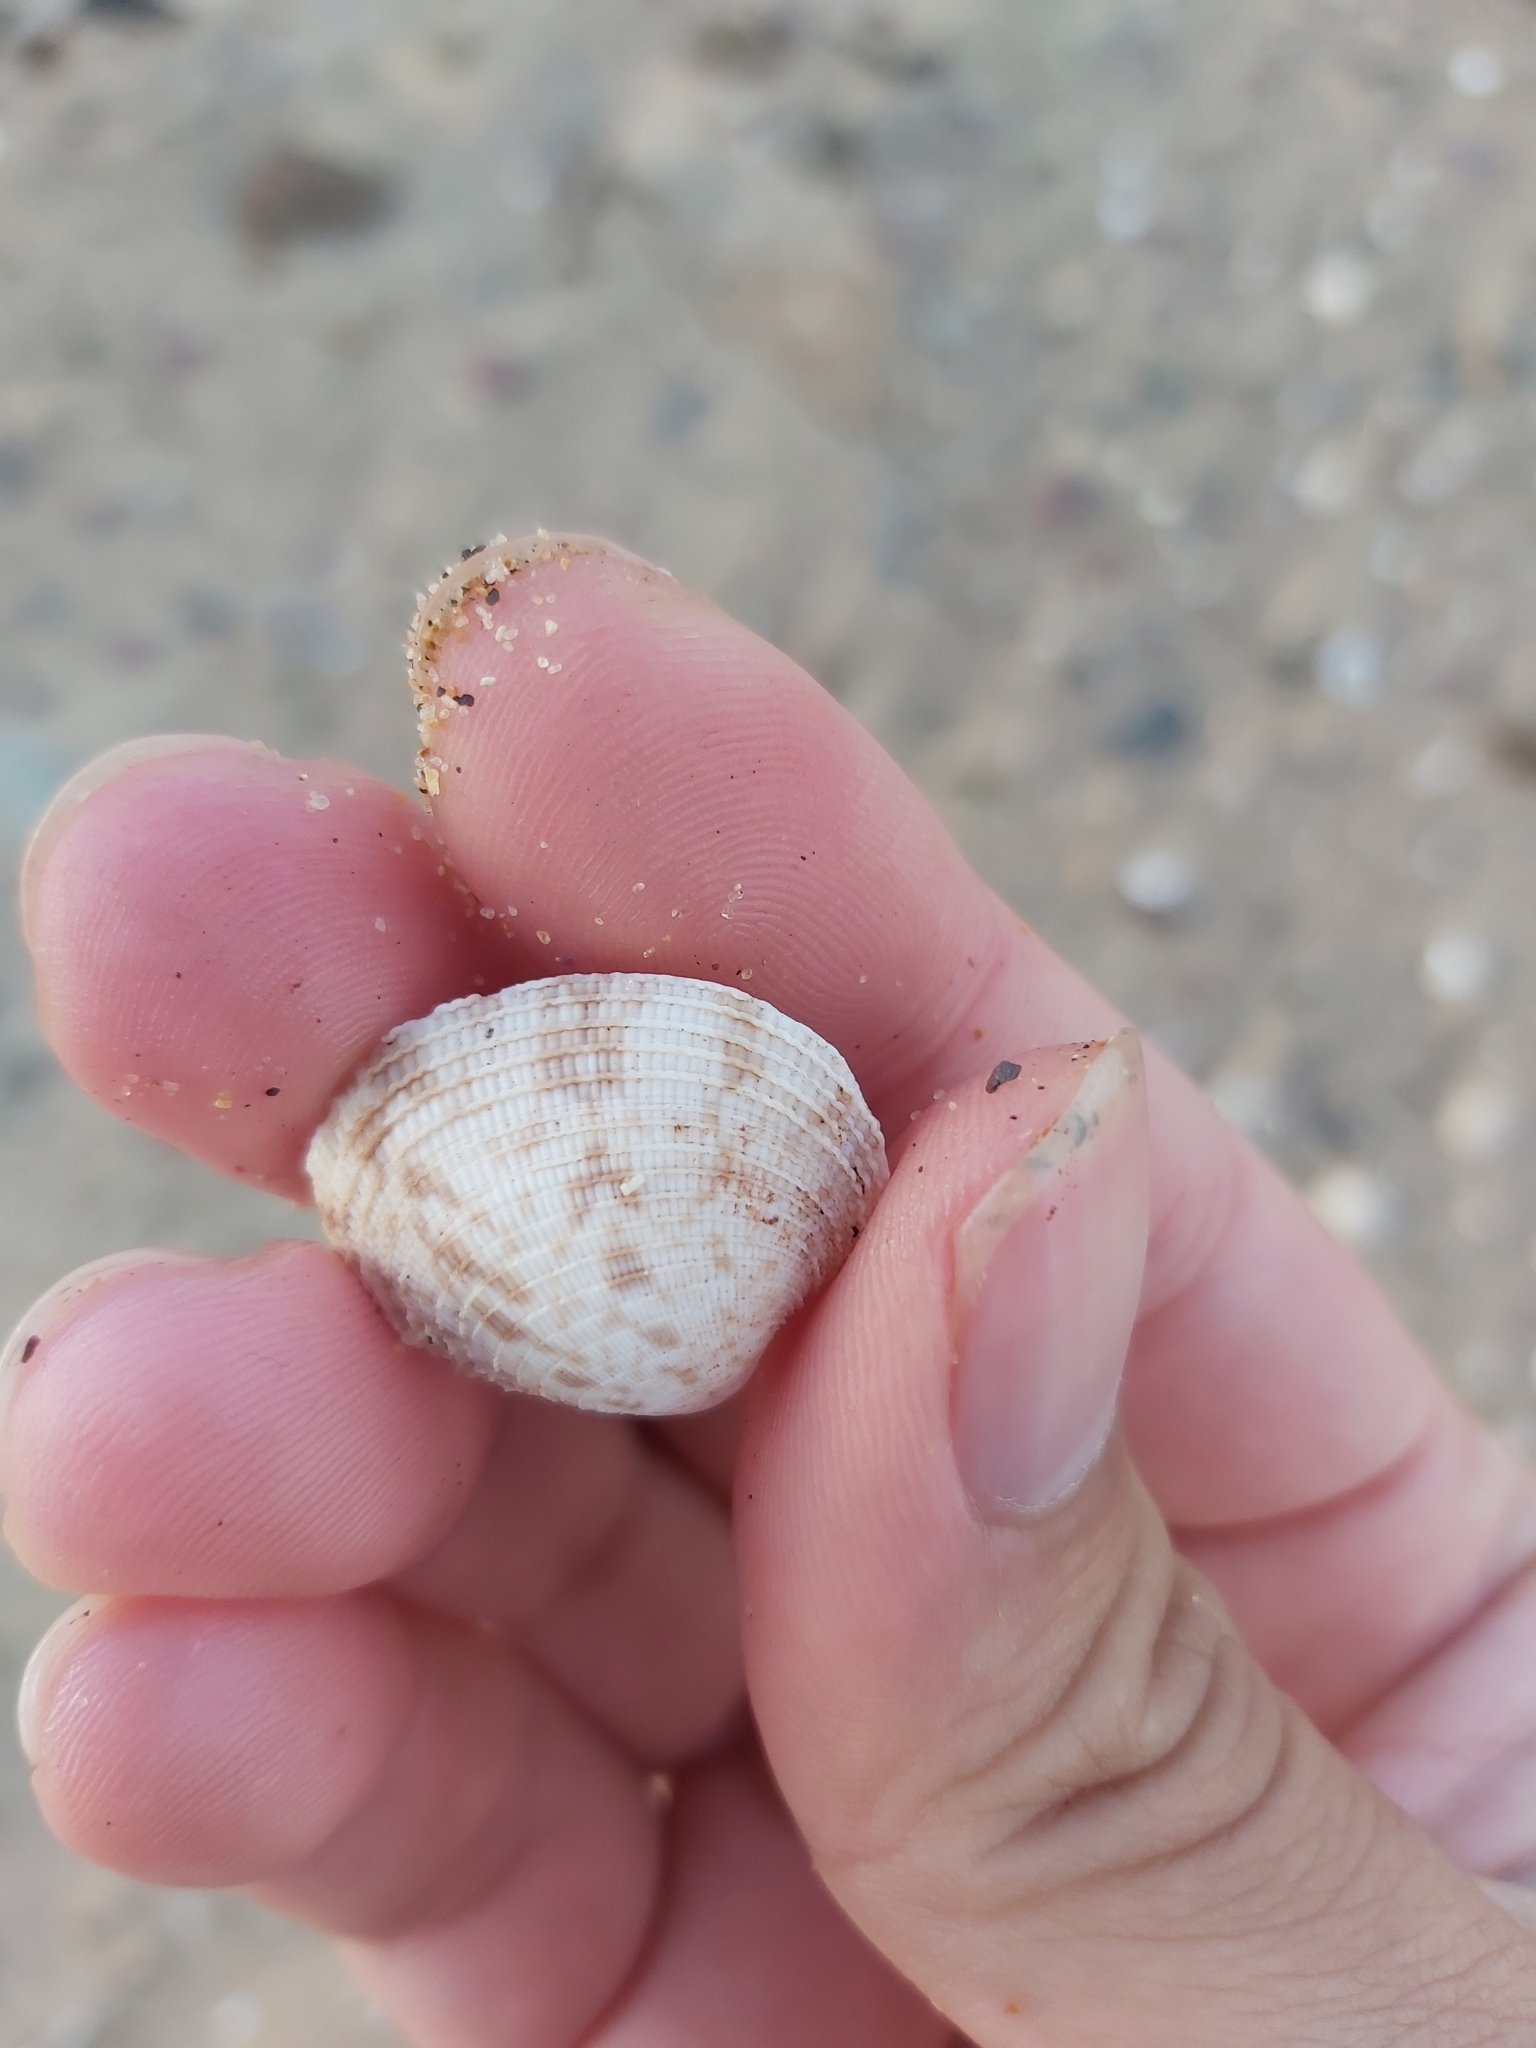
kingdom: Animalia
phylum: Mollusca
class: Bivalvia
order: Venerida
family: Veneridae
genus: Tawera
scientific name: Tawera lagopus
